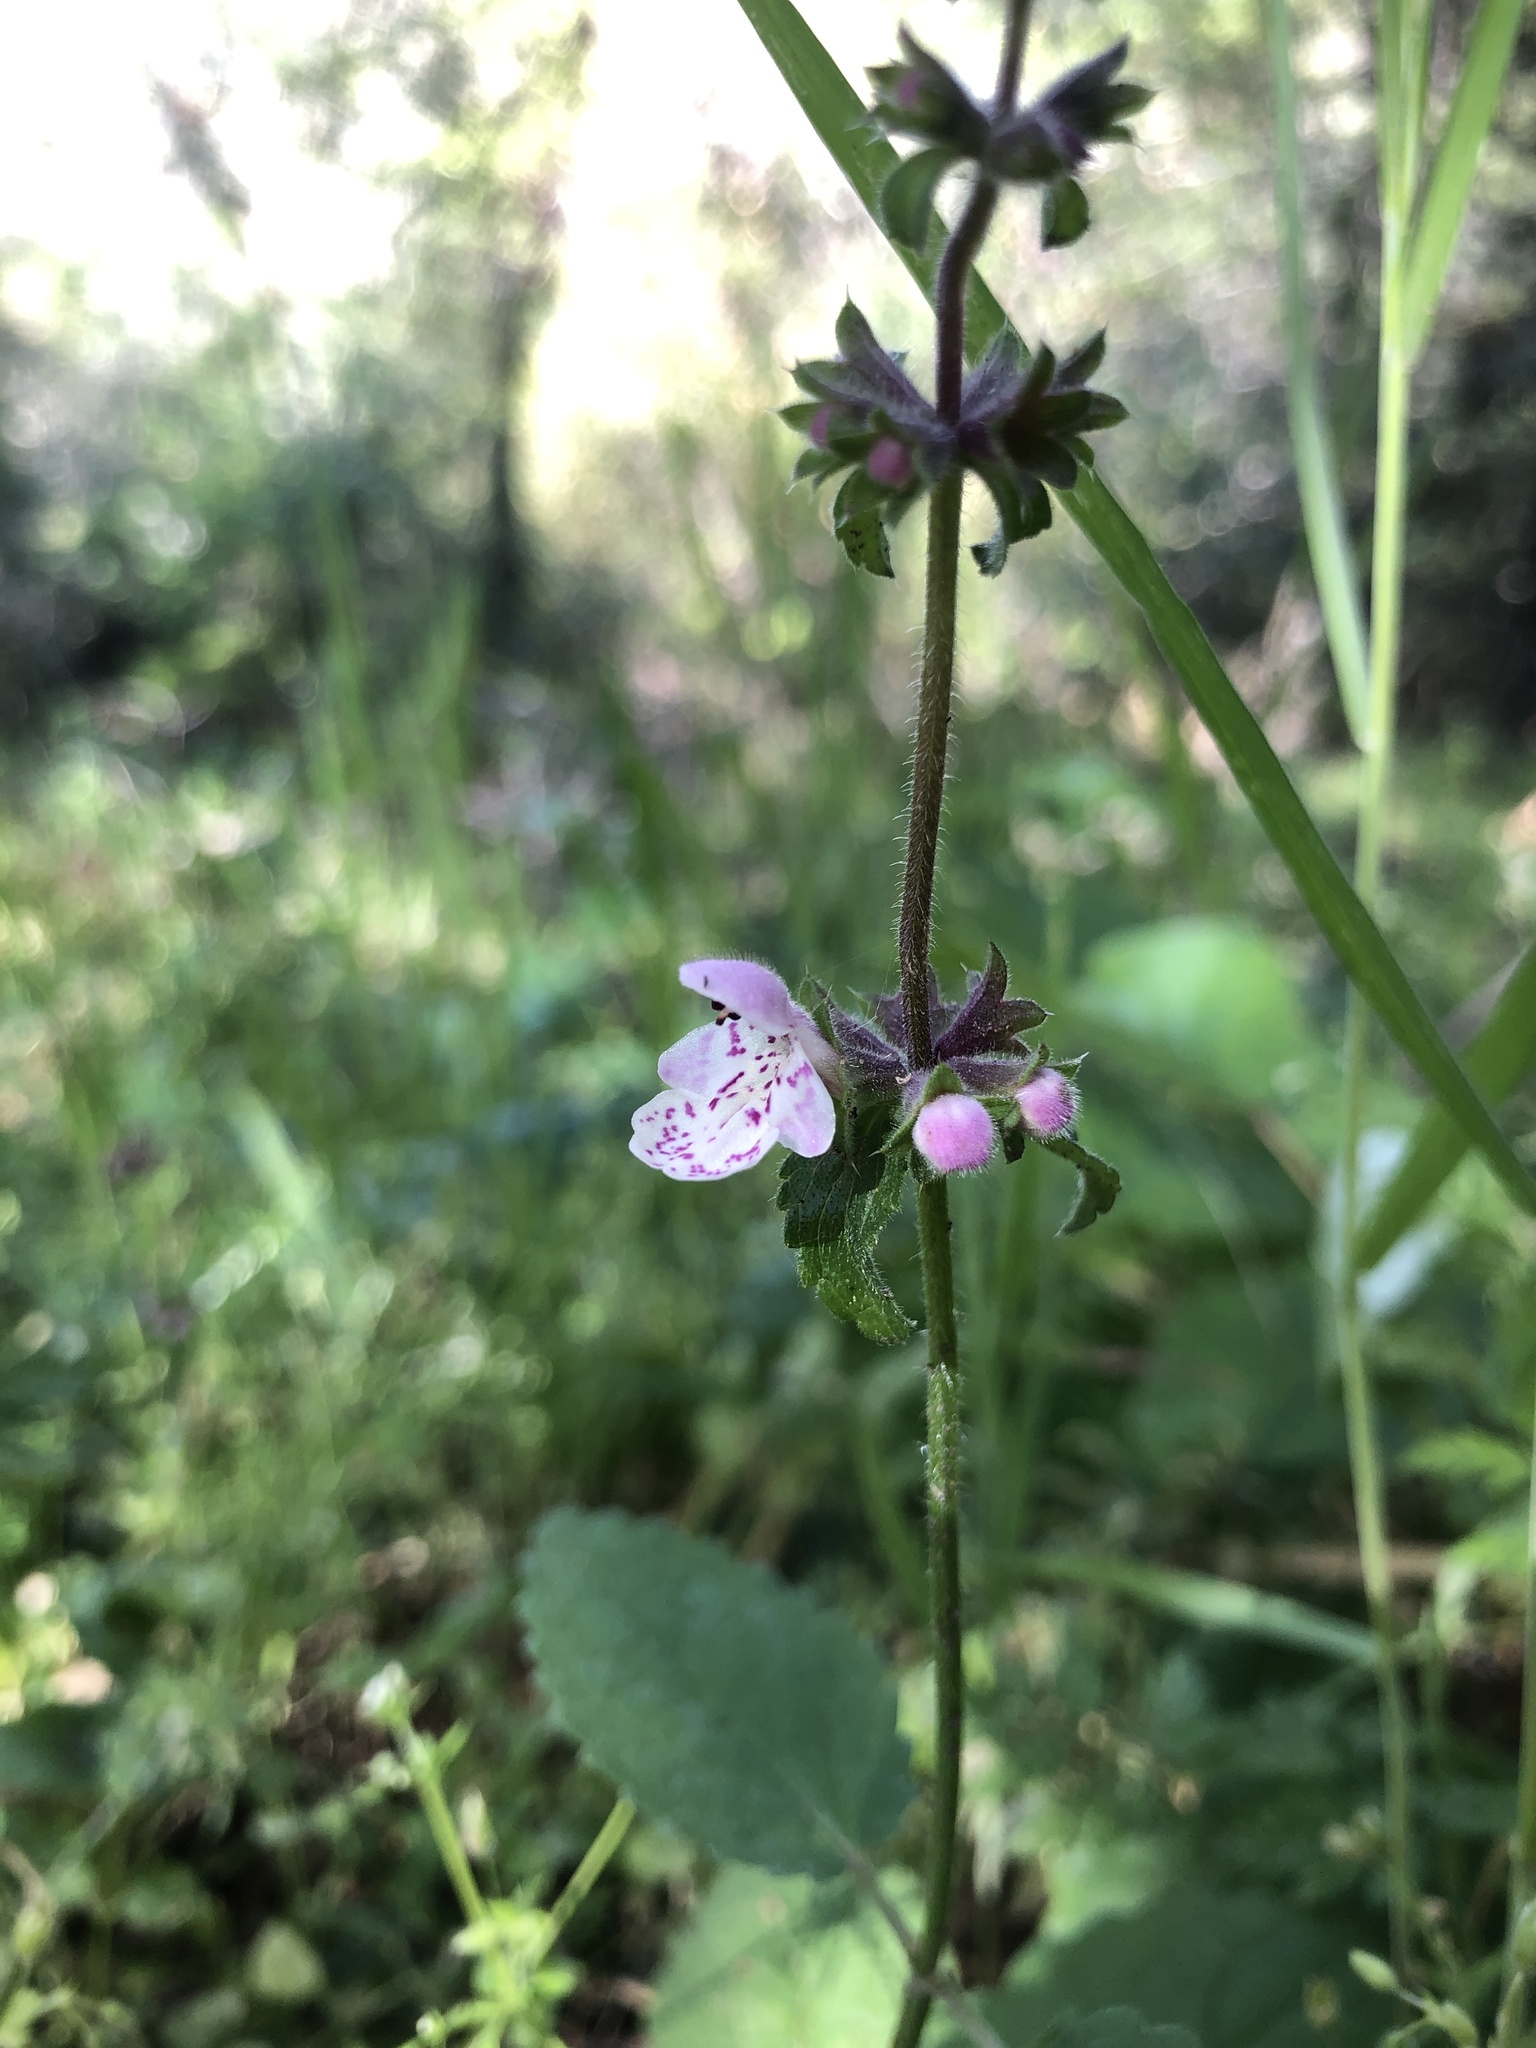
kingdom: Plantae
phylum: Tracheophyta
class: Magnoliopsida
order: Lamiales
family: Lamiaceae
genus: Stachys
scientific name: Stachys rigida
